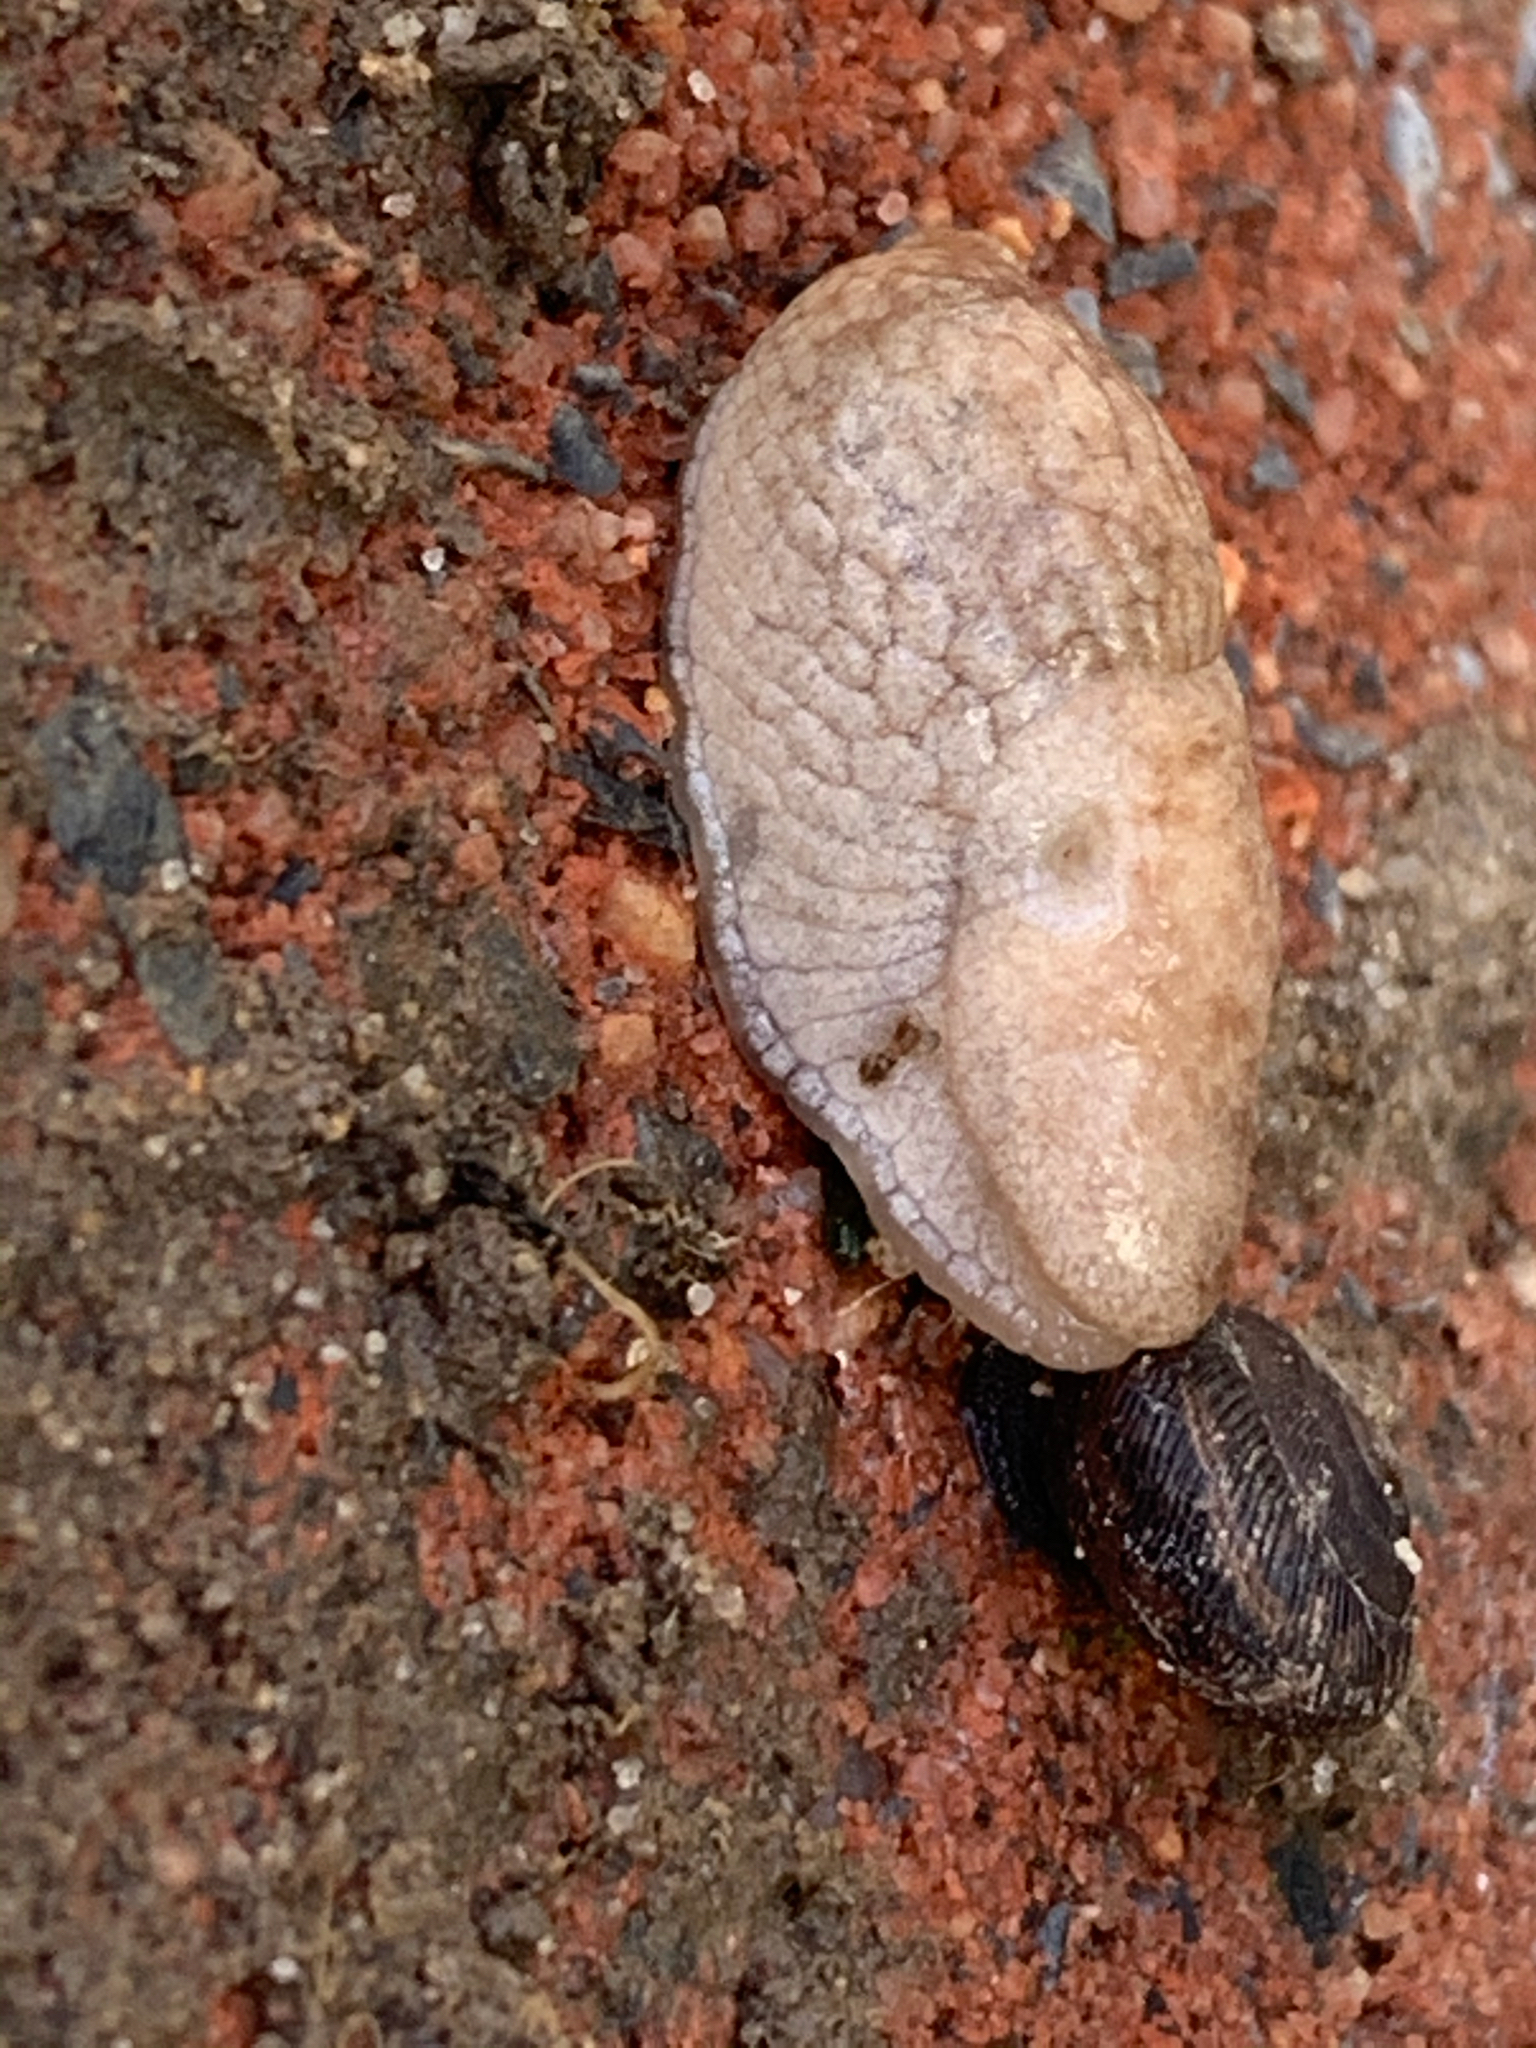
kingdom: Animalia
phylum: Mollusca
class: Gastropoda
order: Stylommatophora
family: Agriolimacidae
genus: Deroceras
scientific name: Deroceras reticulatum
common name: Gray field slug
